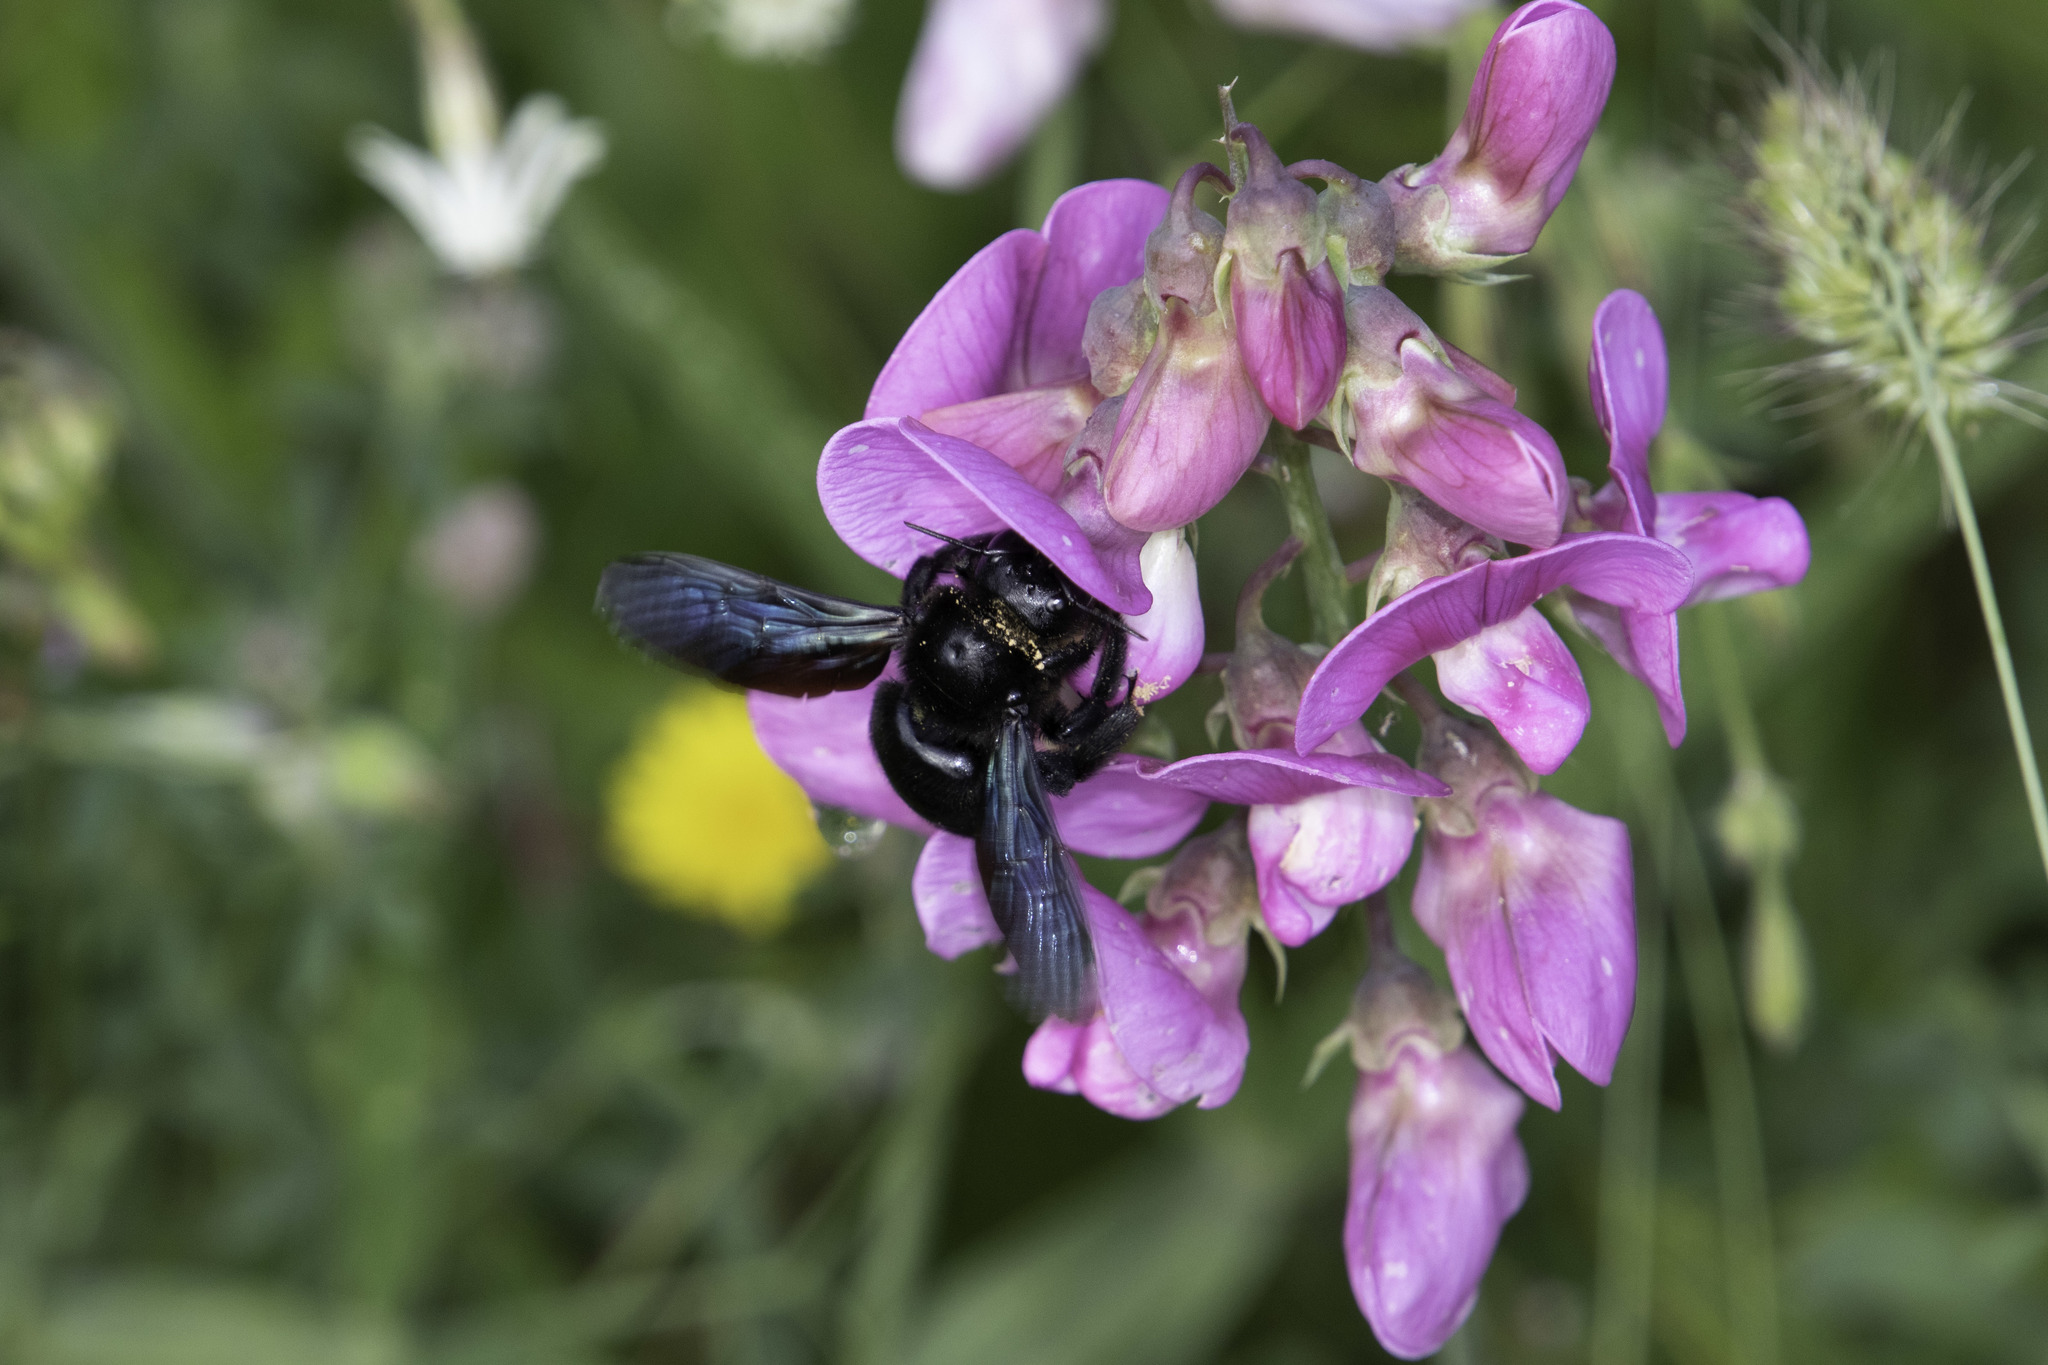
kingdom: Animalia
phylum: Arthropoda
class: Insecta
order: Hymenoptera
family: Apidae
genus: Xylocopa
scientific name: Xylocopa violacea
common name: Violet carpenter bee
